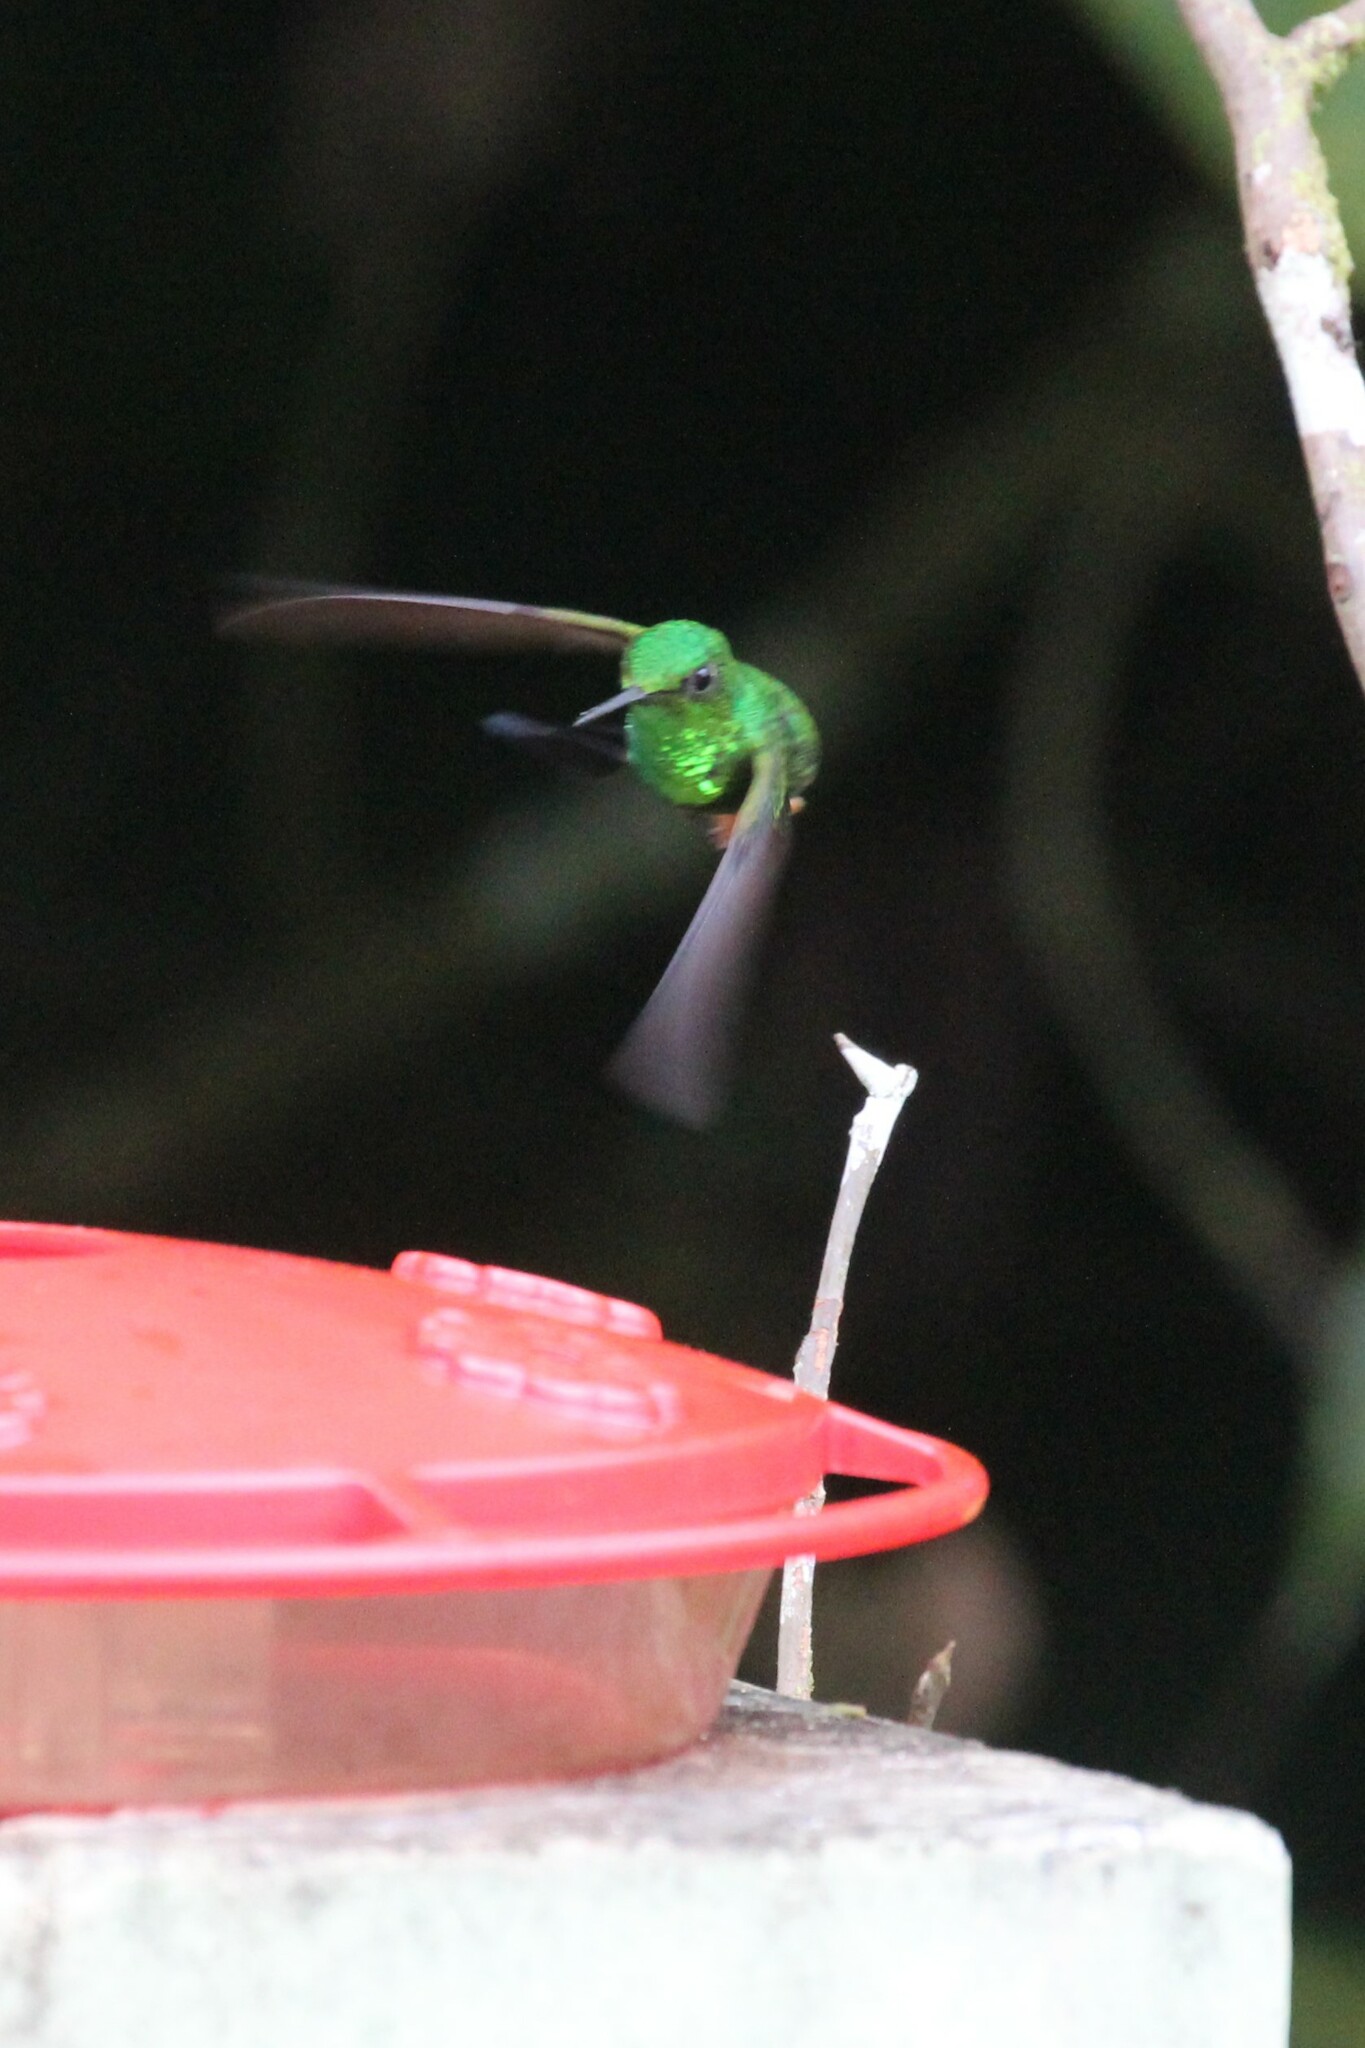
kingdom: Animalia
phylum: Chordata
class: Aves
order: Apodiformes
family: Trochilidae
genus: Ocreatus
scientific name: Ocreatus peruanus
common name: Peruvian racket-tail
